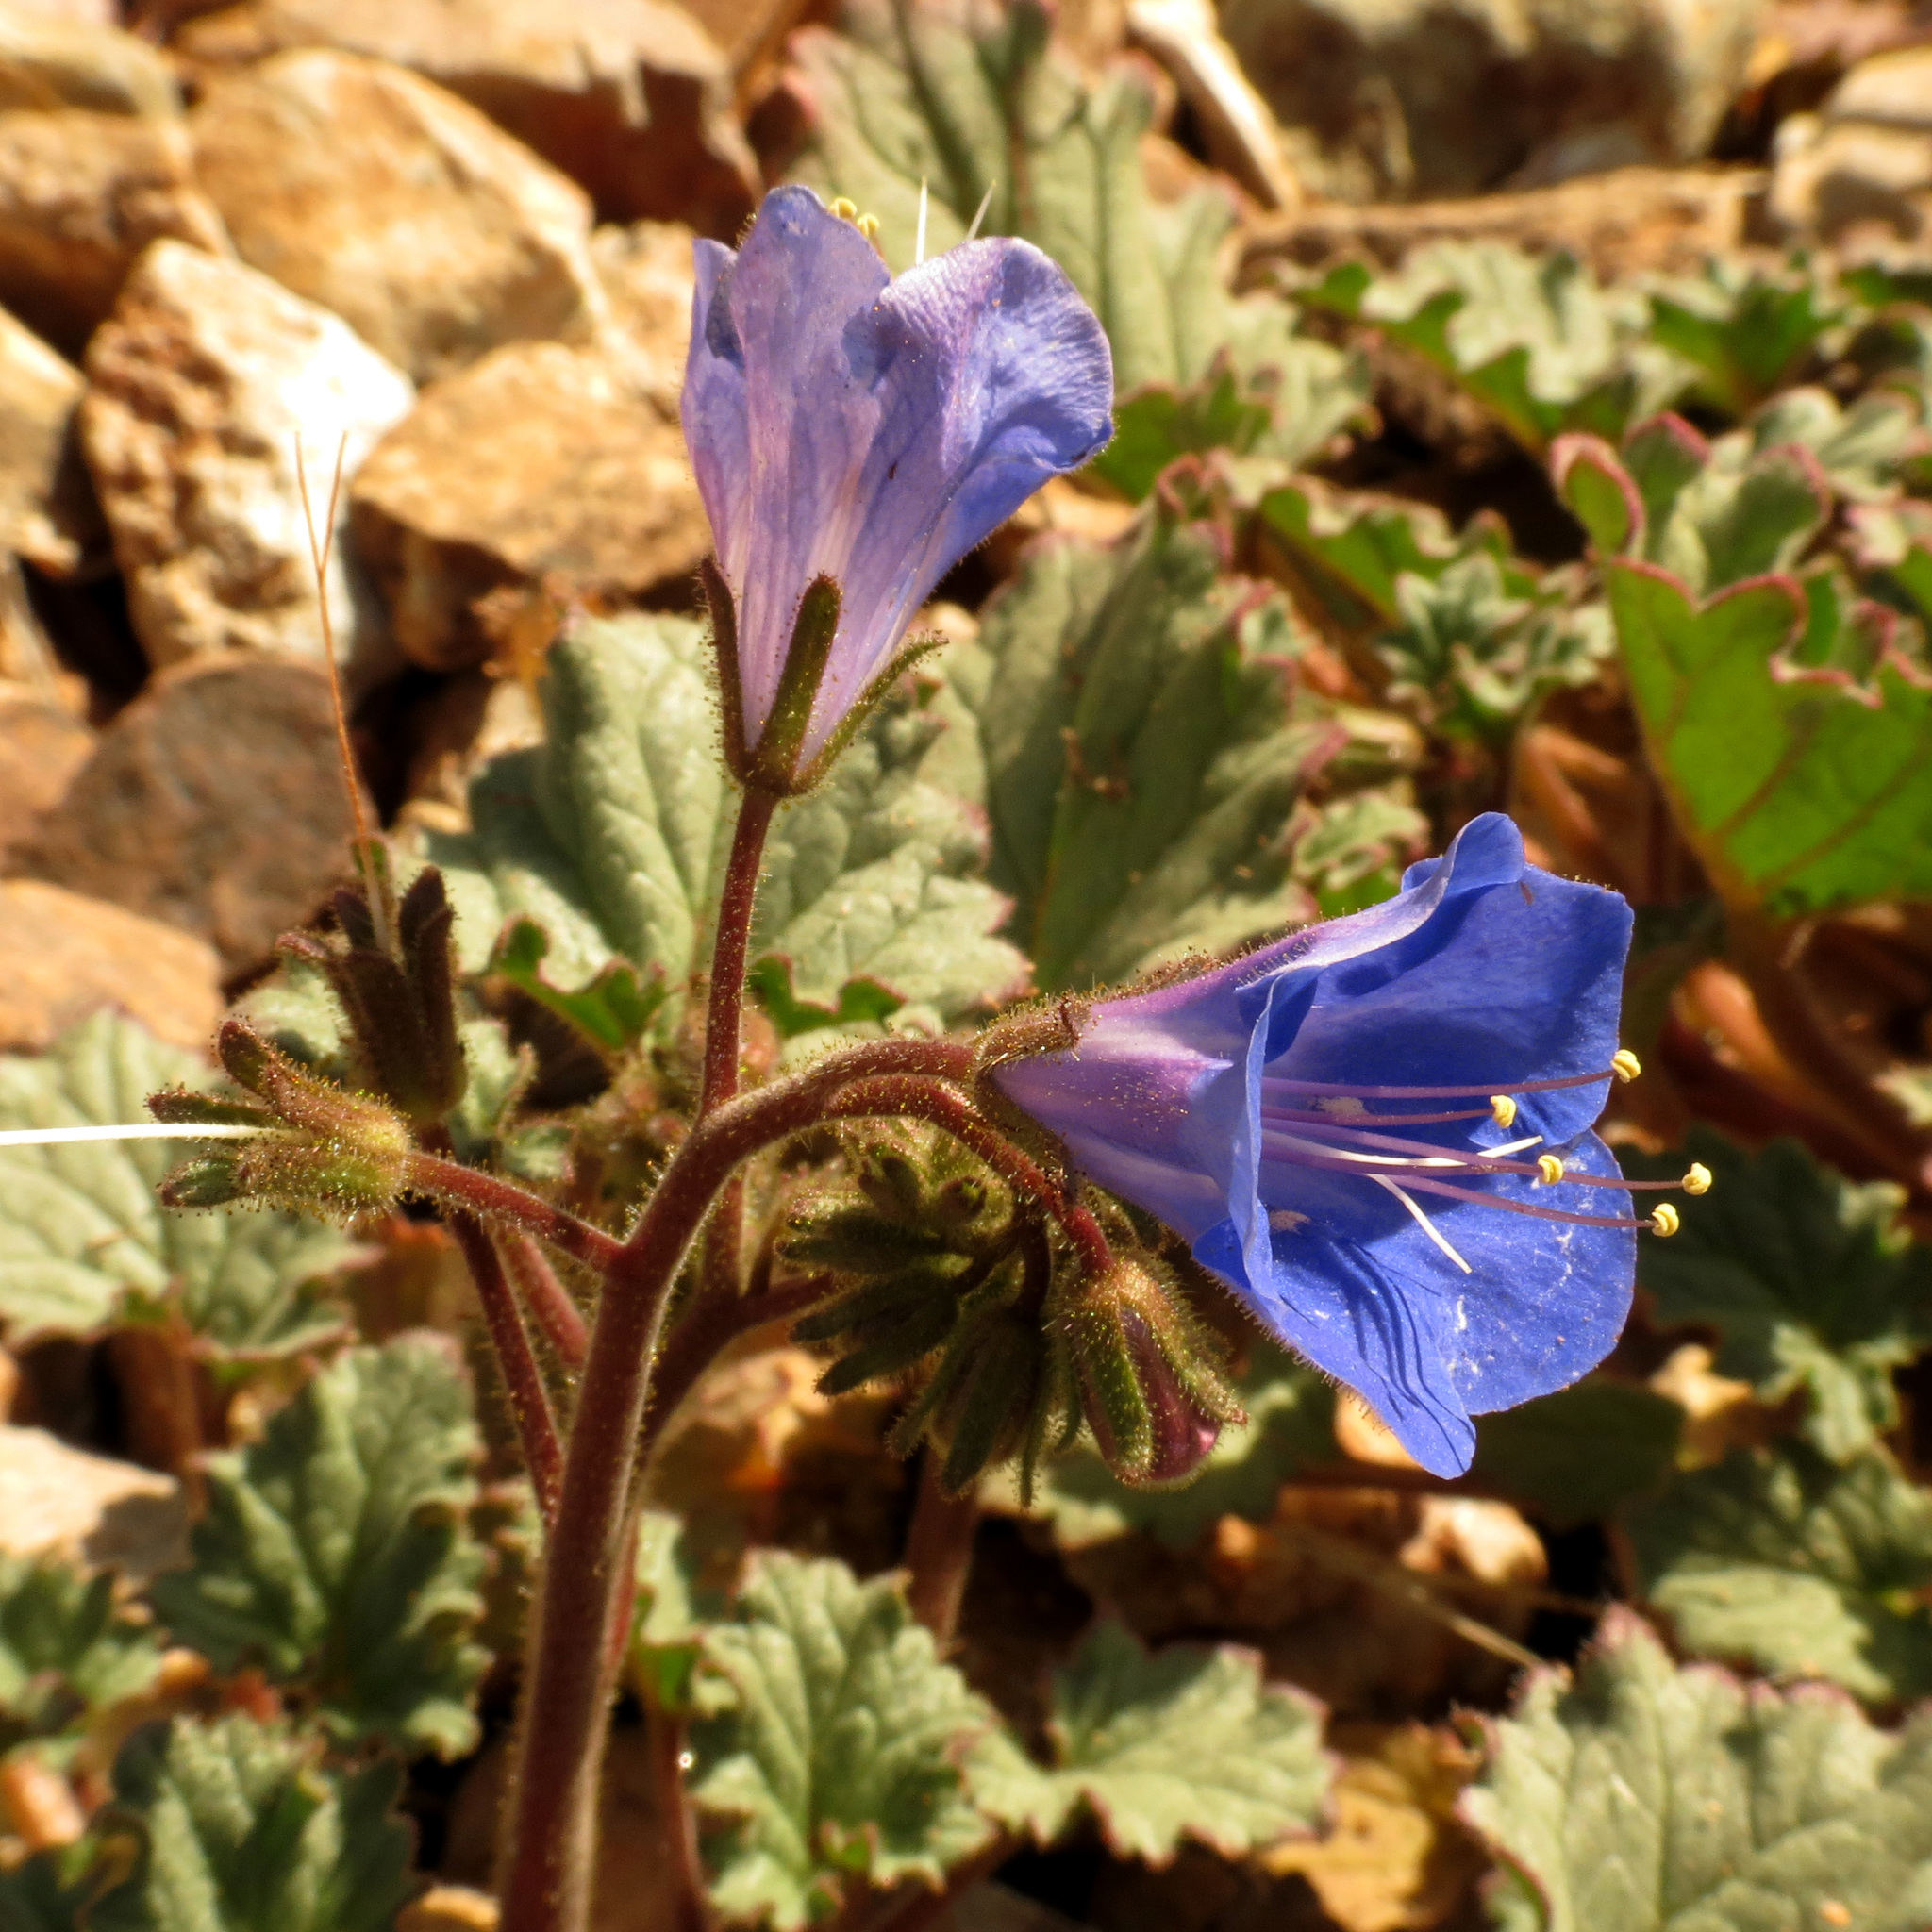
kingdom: Plantae
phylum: Tracheophyta
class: Magnoliopsida
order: Boraginales
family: Hydrophyllaceae
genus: Phacelia
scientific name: Phacelia campanularia
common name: California bluebell
